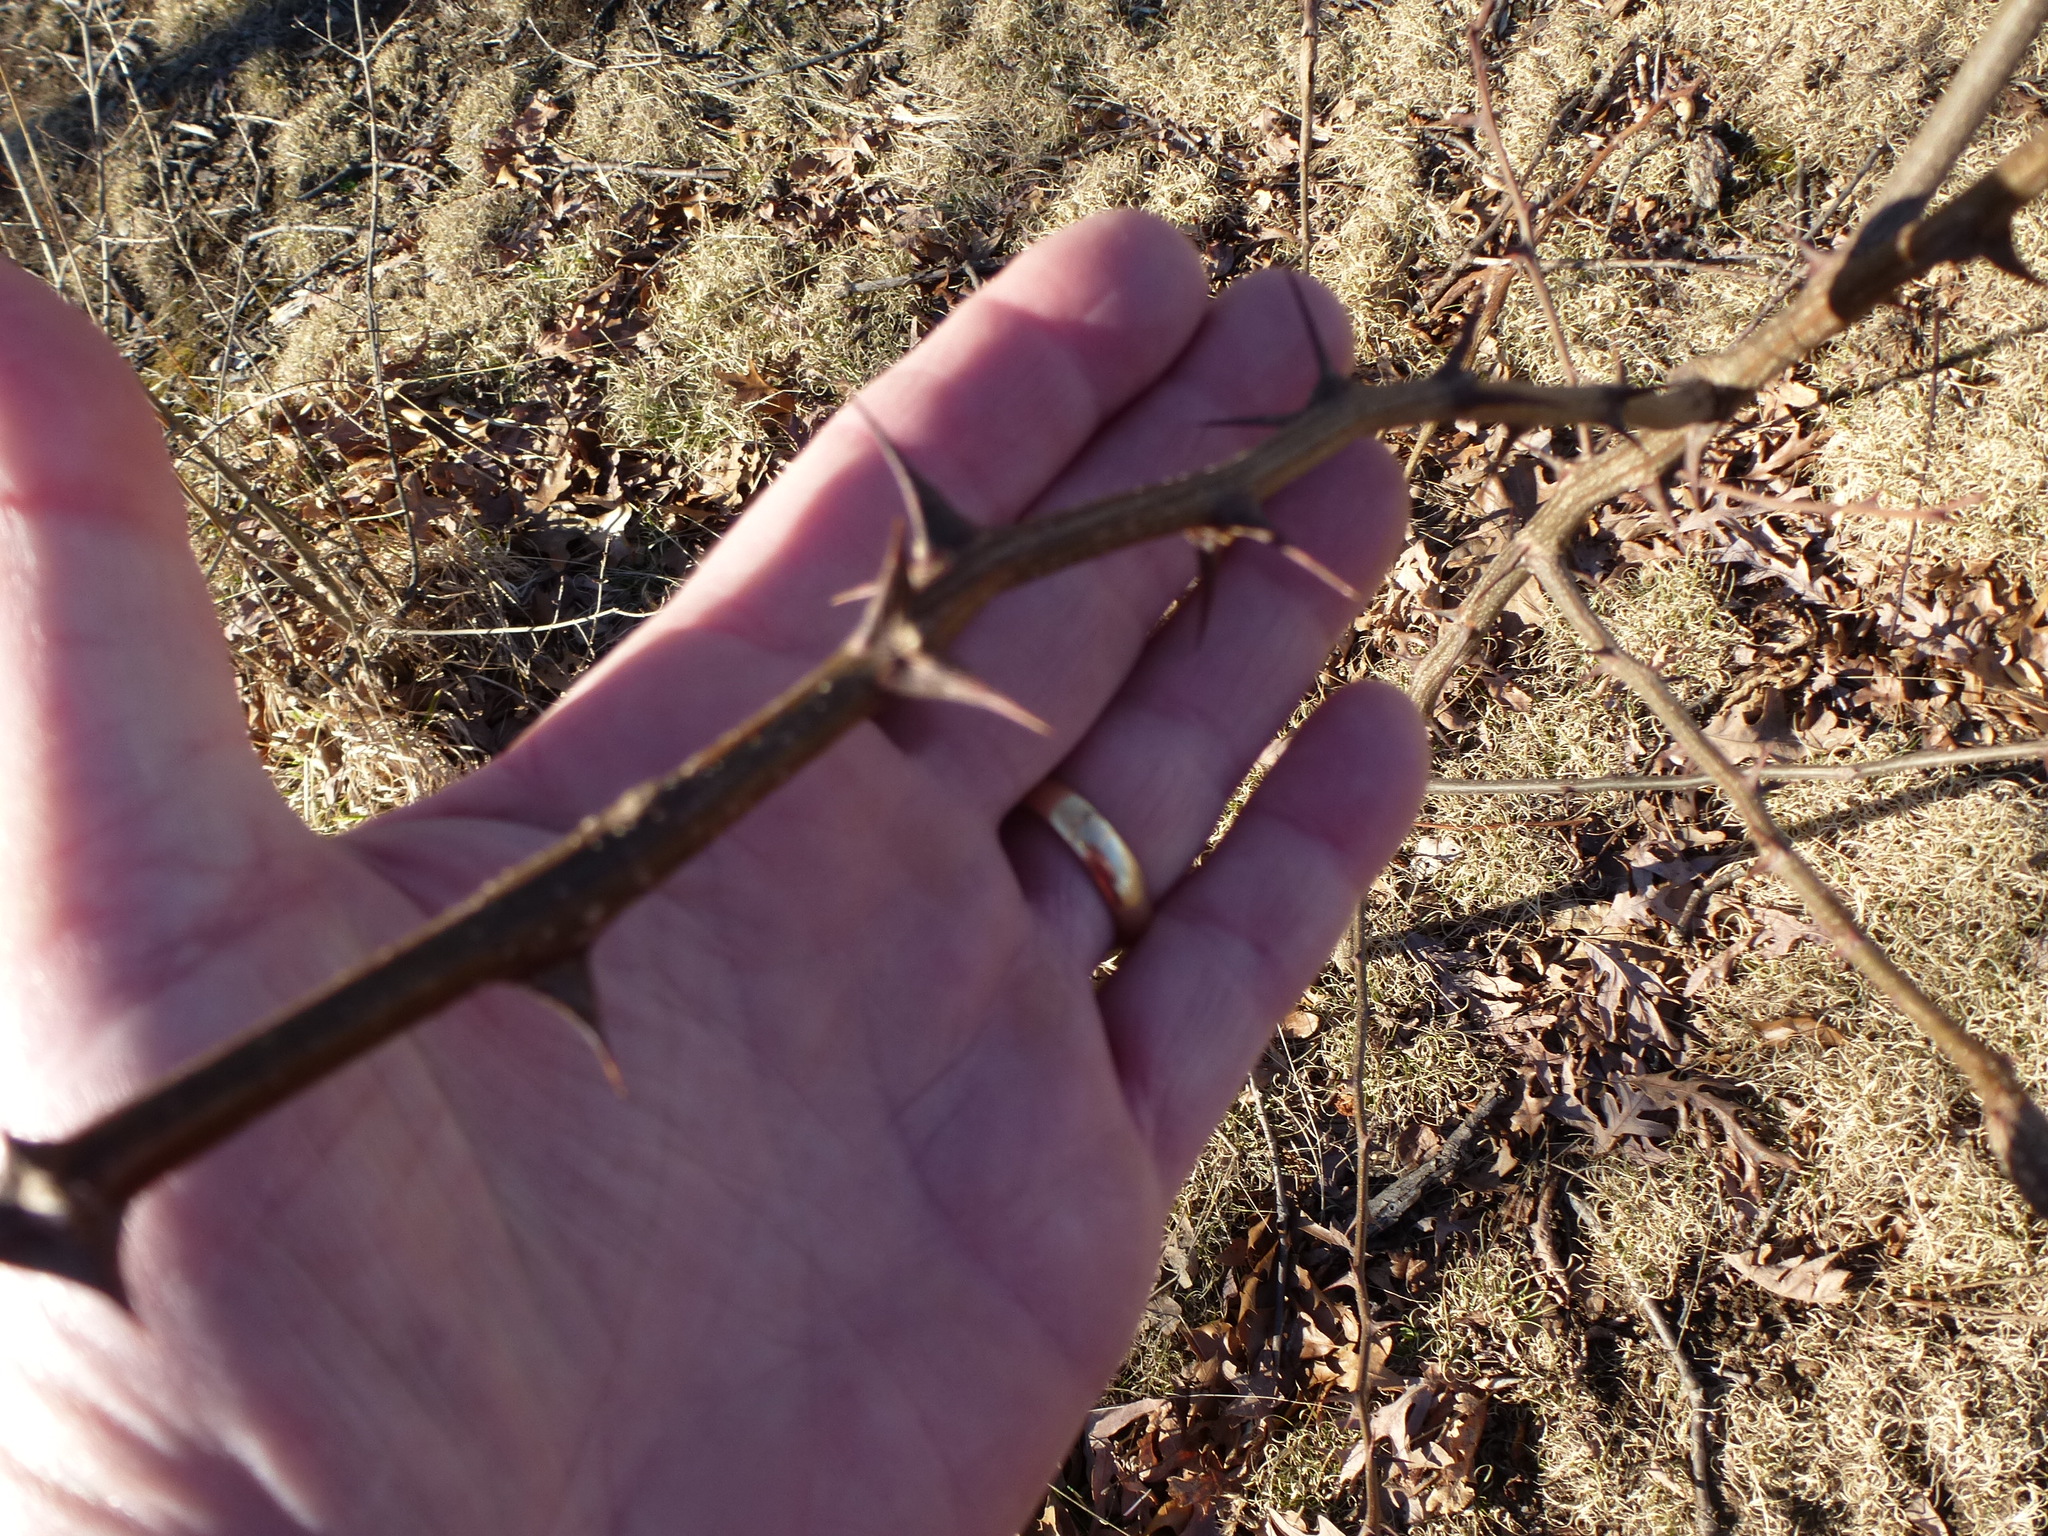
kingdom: Plantae
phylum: Tracheophyta
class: Magnoliopsida
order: Fabales
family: Fabaceae
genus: Robinia
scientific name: Robinia pseudoacacia
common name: Black locust
